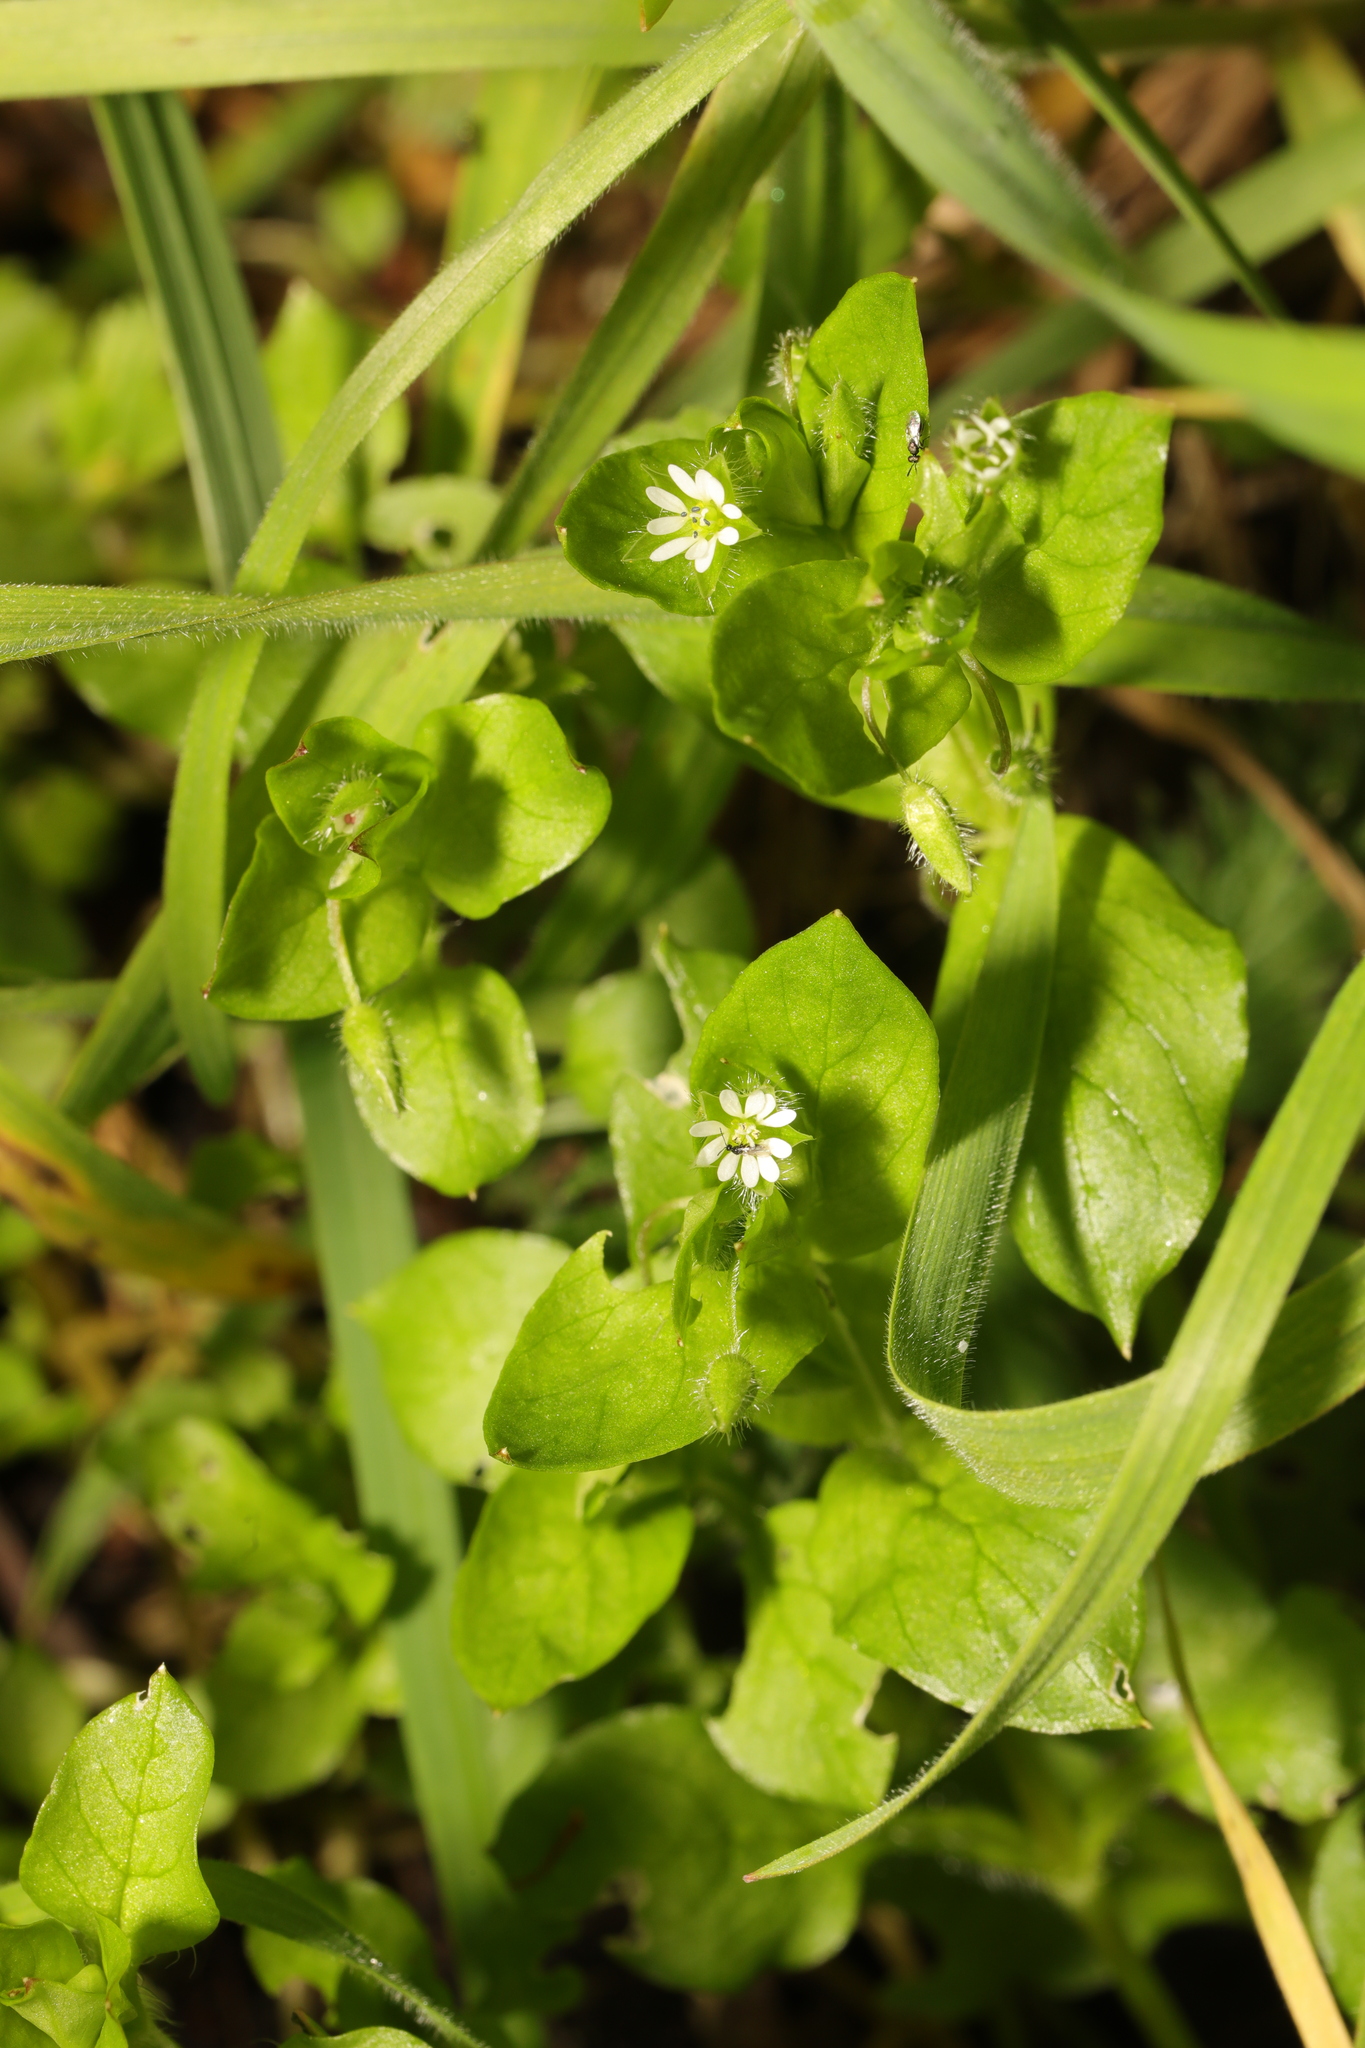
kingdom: Plantae
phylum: Tracheophyta
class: Magnoliopsida
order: Caryophyllales
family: Caryophyllaceae
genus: Stellaria
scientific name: Stellaria media
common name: Common chickweed
